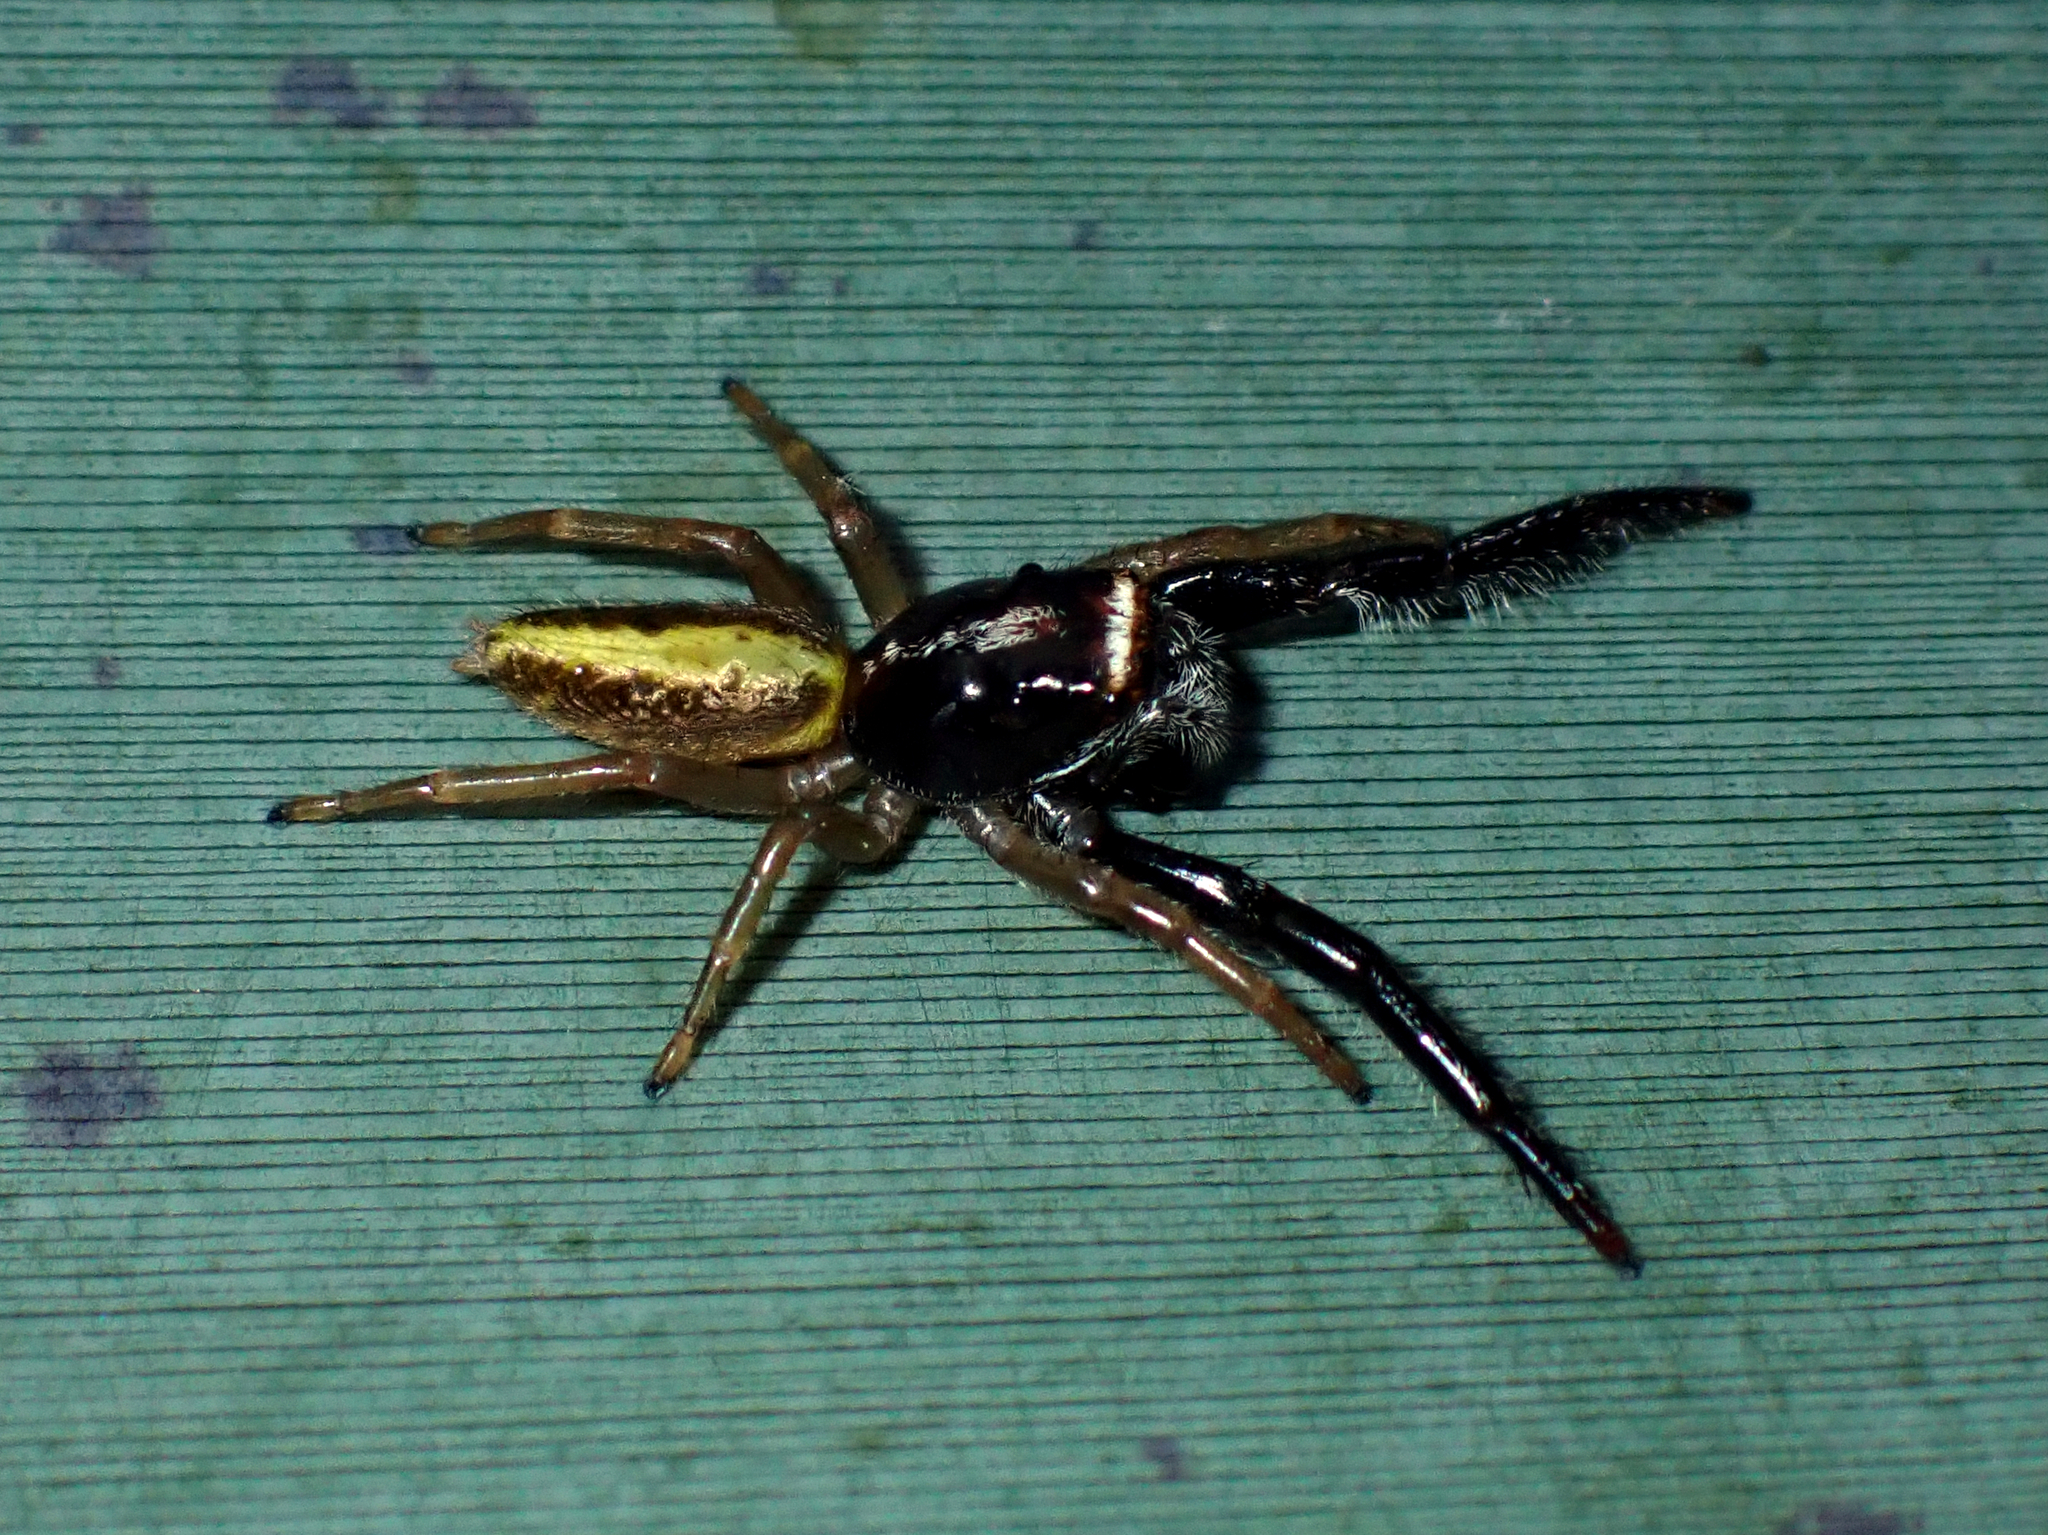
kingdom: Animalia
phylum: Arthropoda
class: Arachnida
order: Araneae
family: Salticidae
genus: Trite
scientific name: Trite planiceps
